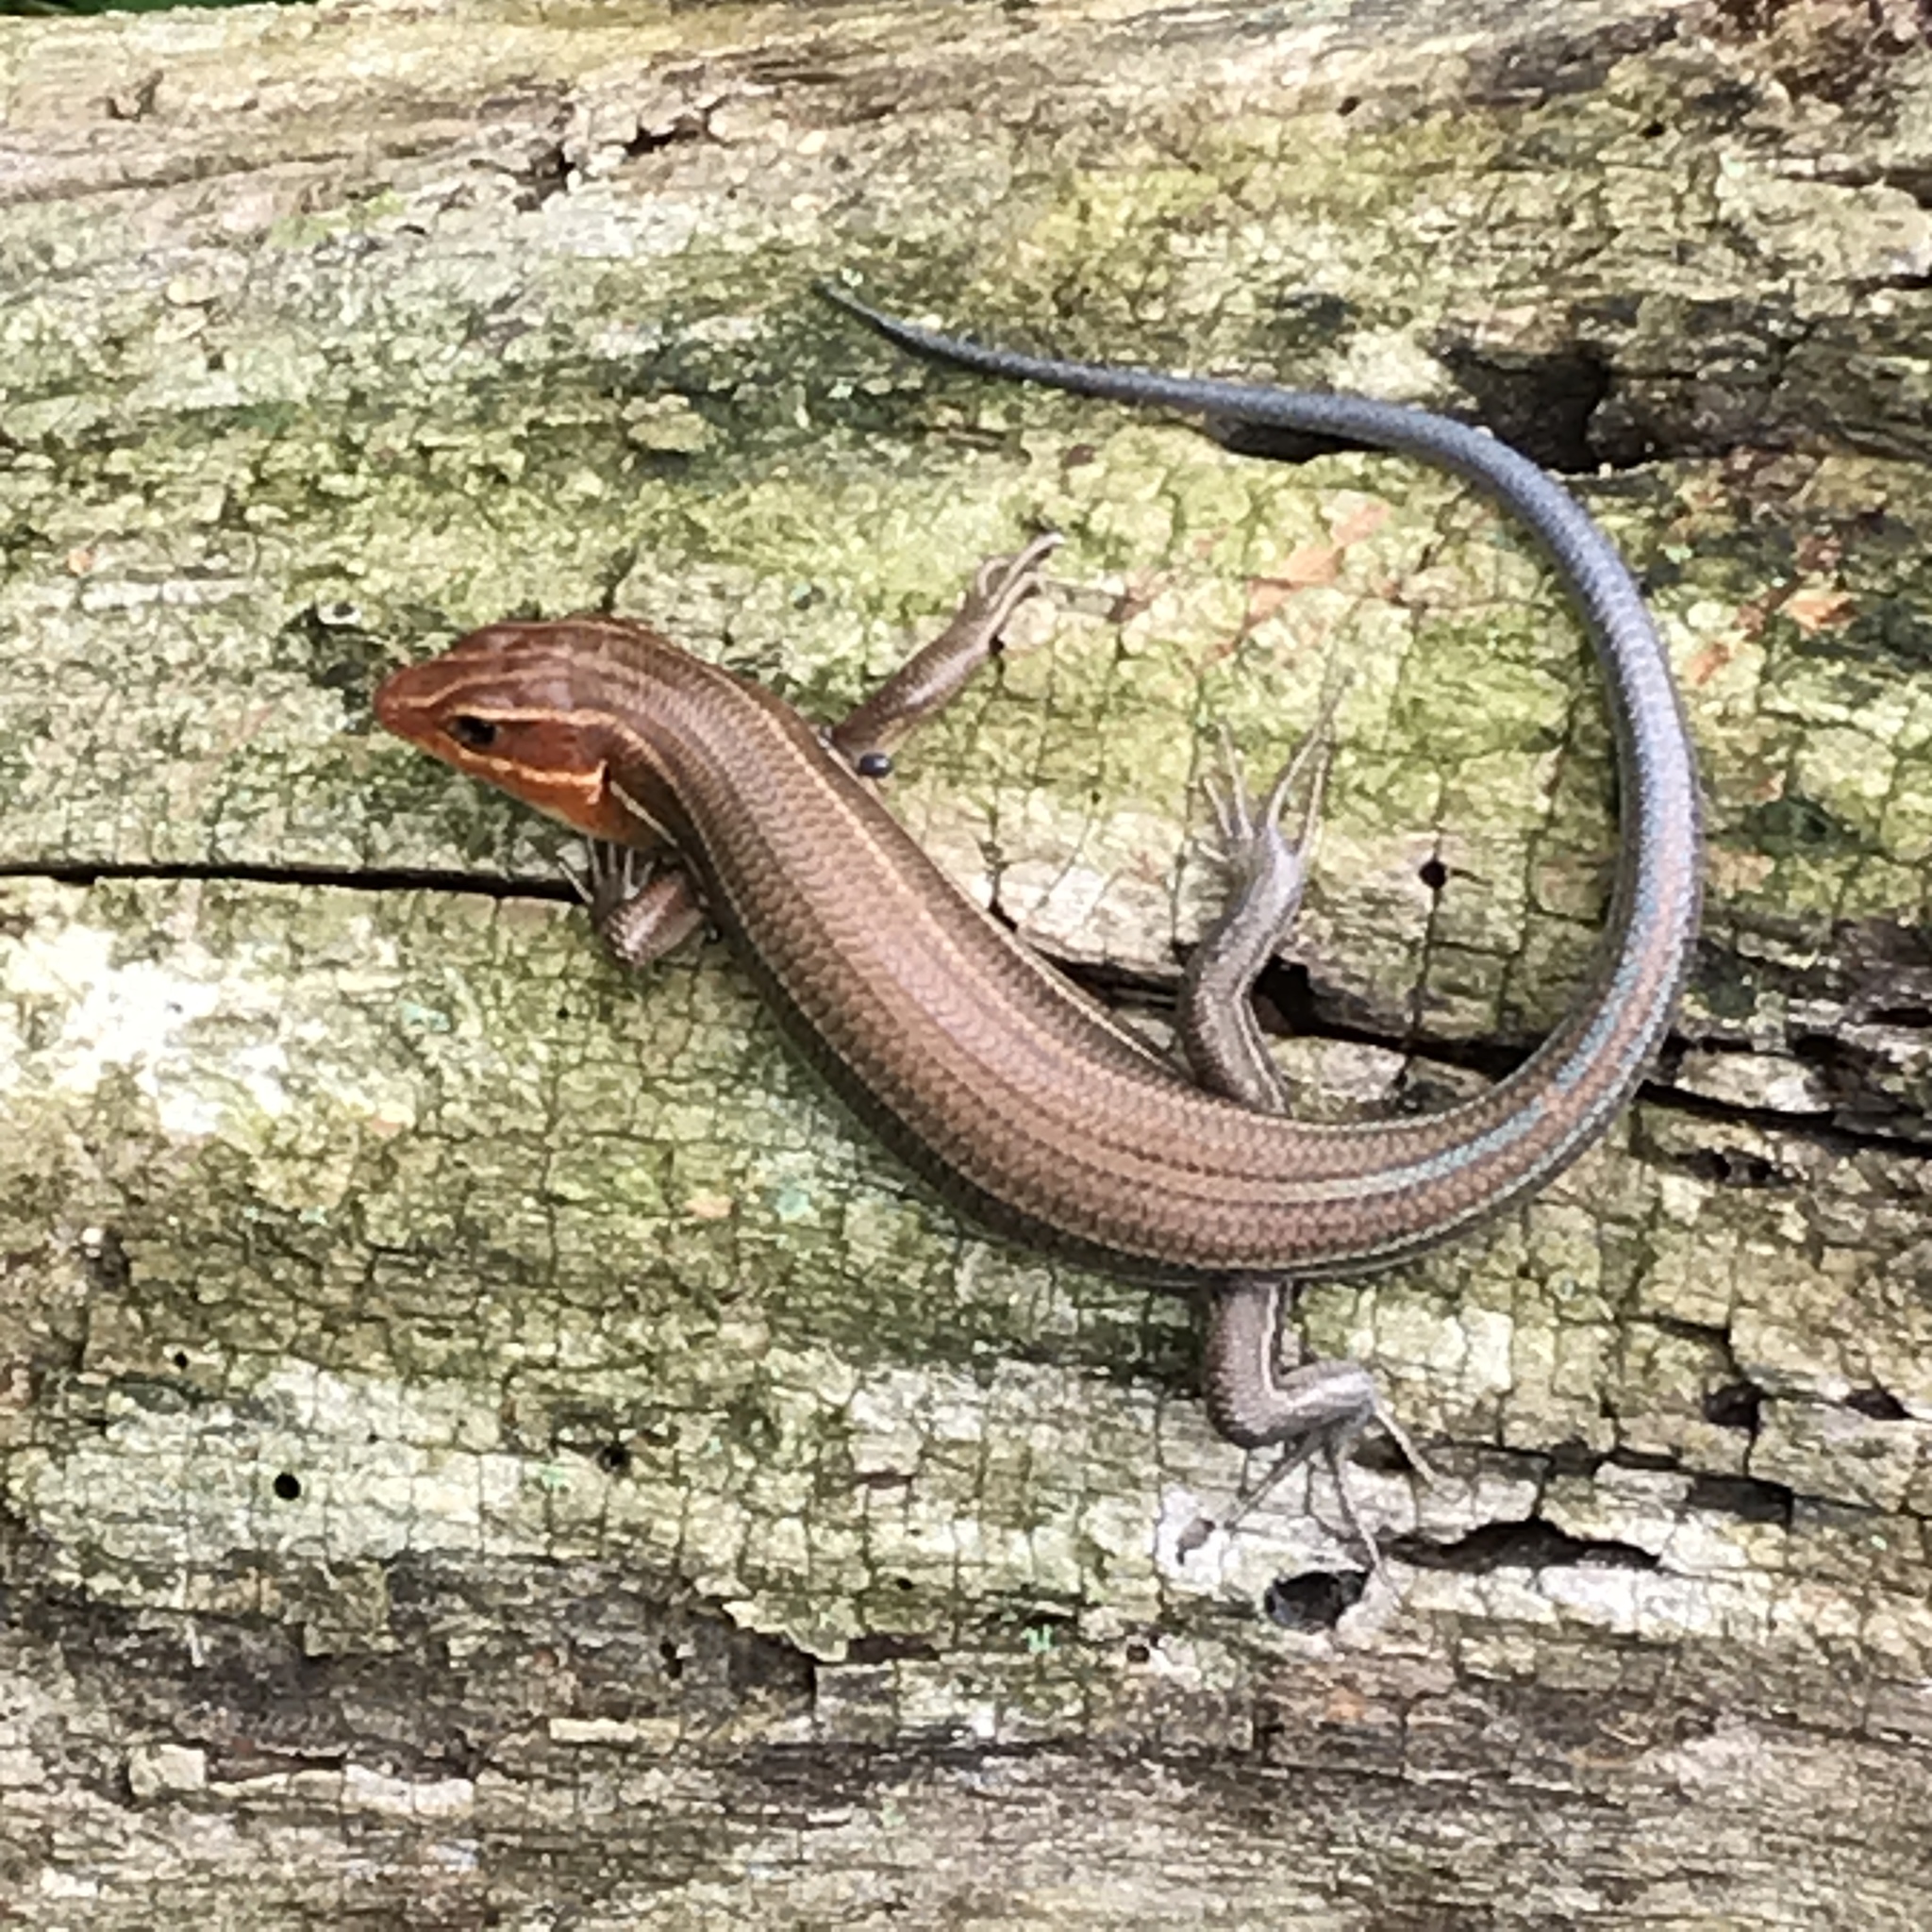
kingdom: Animalia
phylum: Chordata
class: Squamata
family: Scincidae
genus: Plestiodon
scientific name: Plestiodon laticeps
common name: Broadhead skink
